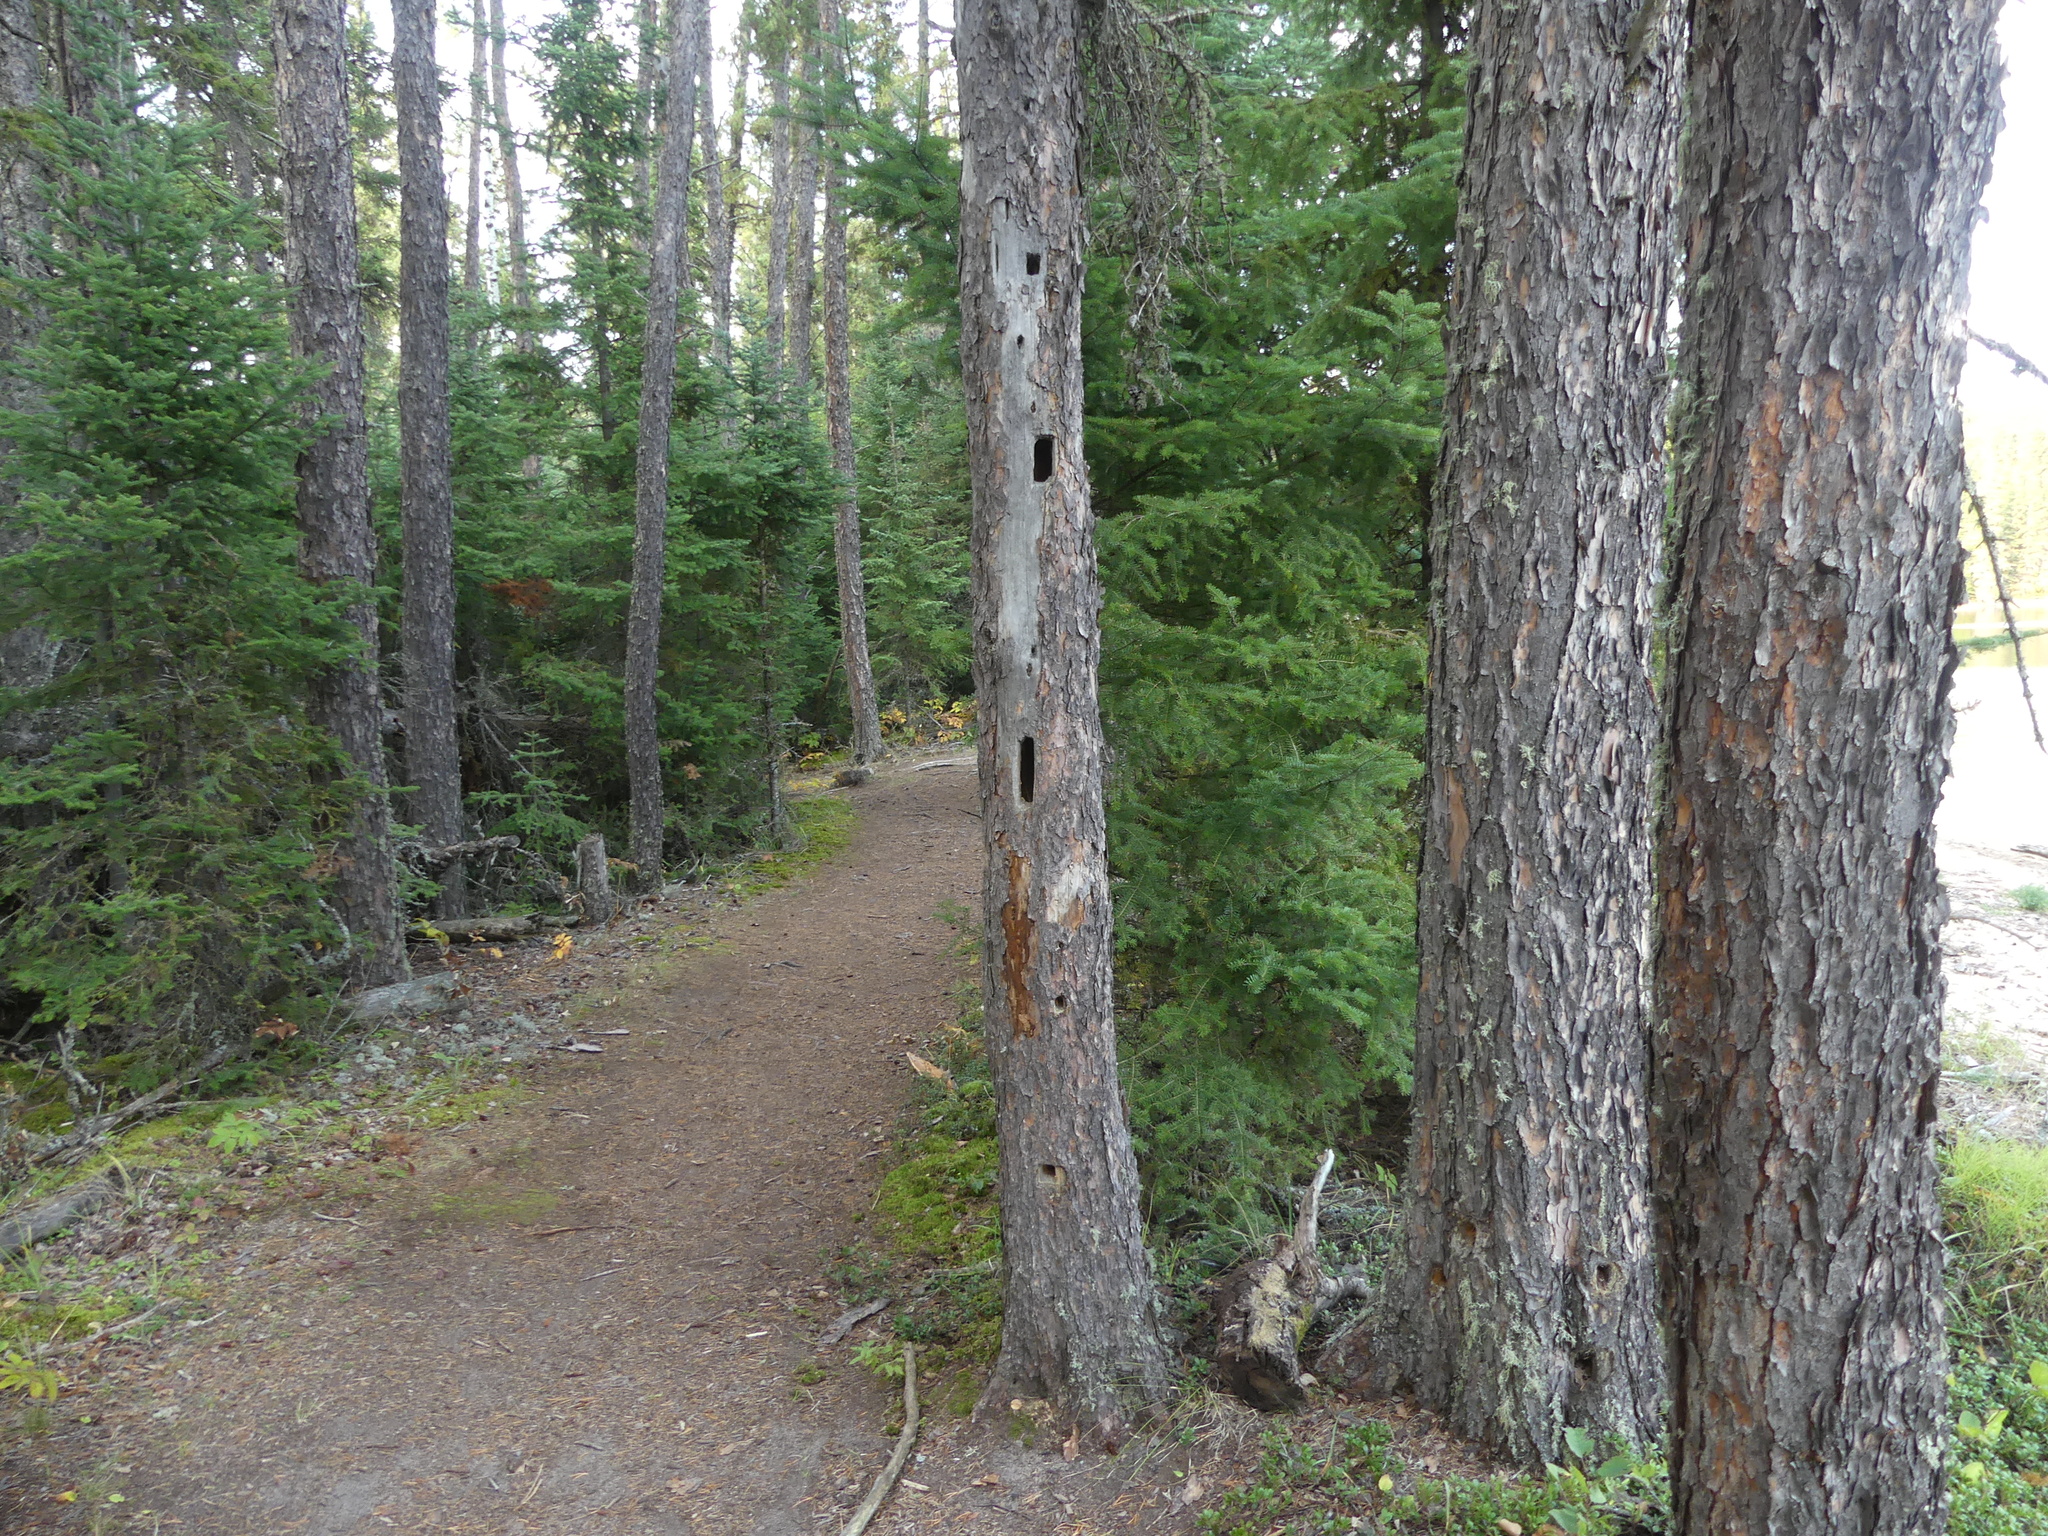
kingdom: Animalia
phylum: Chordata
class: Aves
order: Piciformes
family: Picidae
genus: Dryocopus
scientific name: Dryocopus pileatus
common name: Pileated woodpecker
